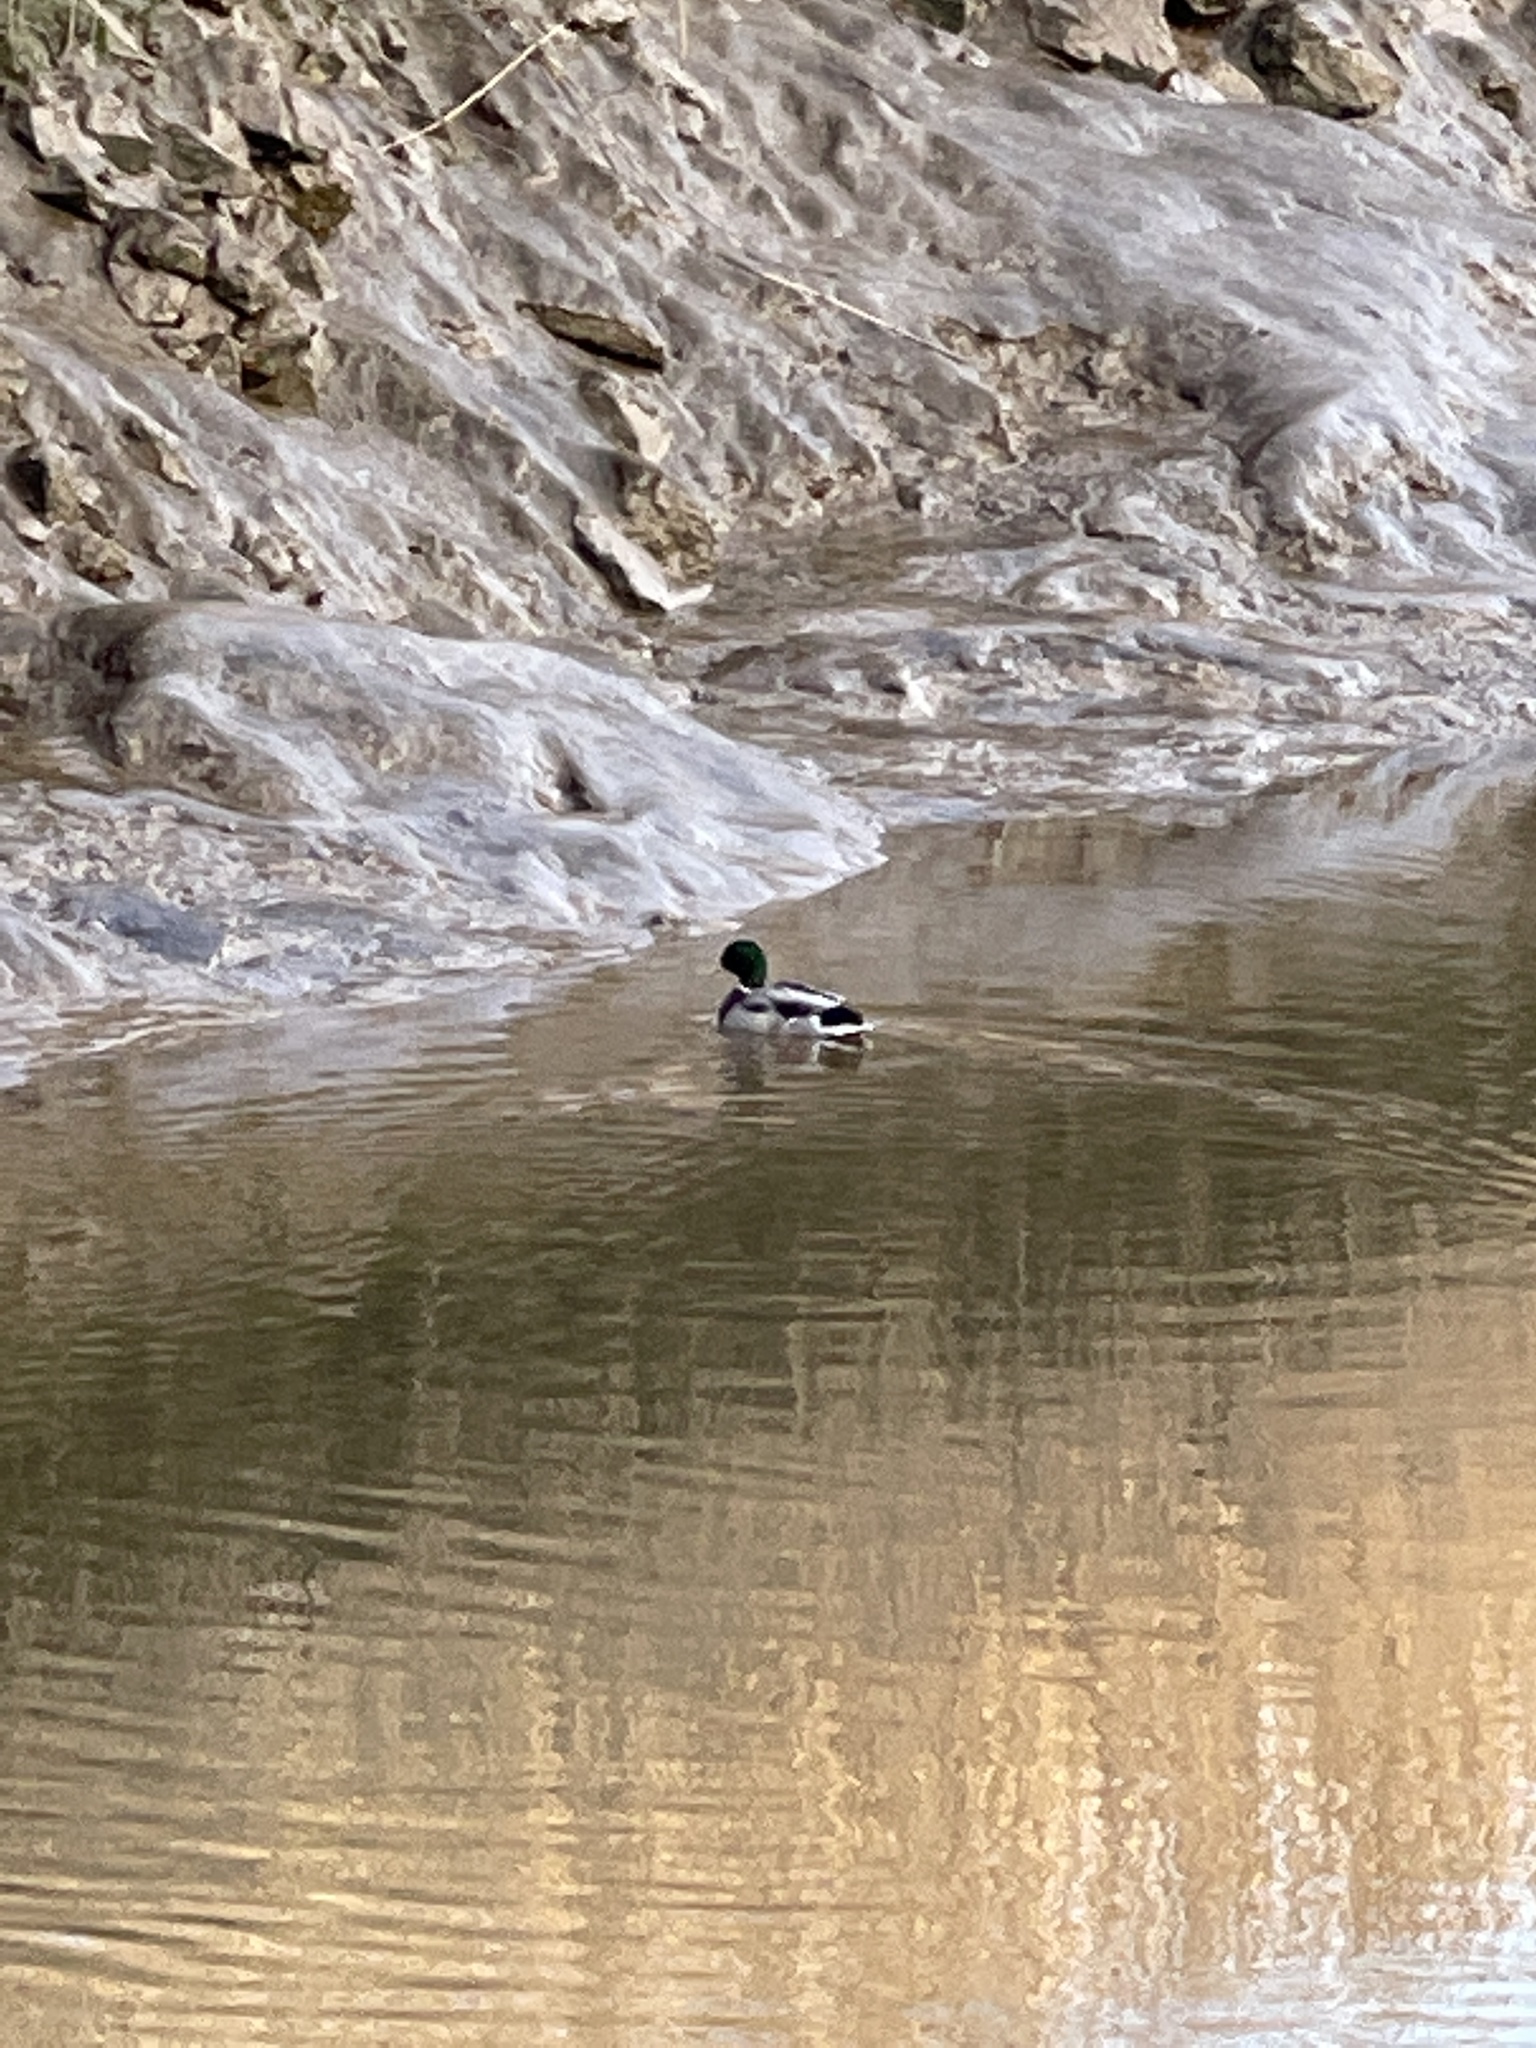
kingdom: Animalia
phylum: Chordata
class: Aves
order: Anseriformes
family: Anatidae
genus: Anas
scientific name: Anas platyrhynchos
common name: Mallard
